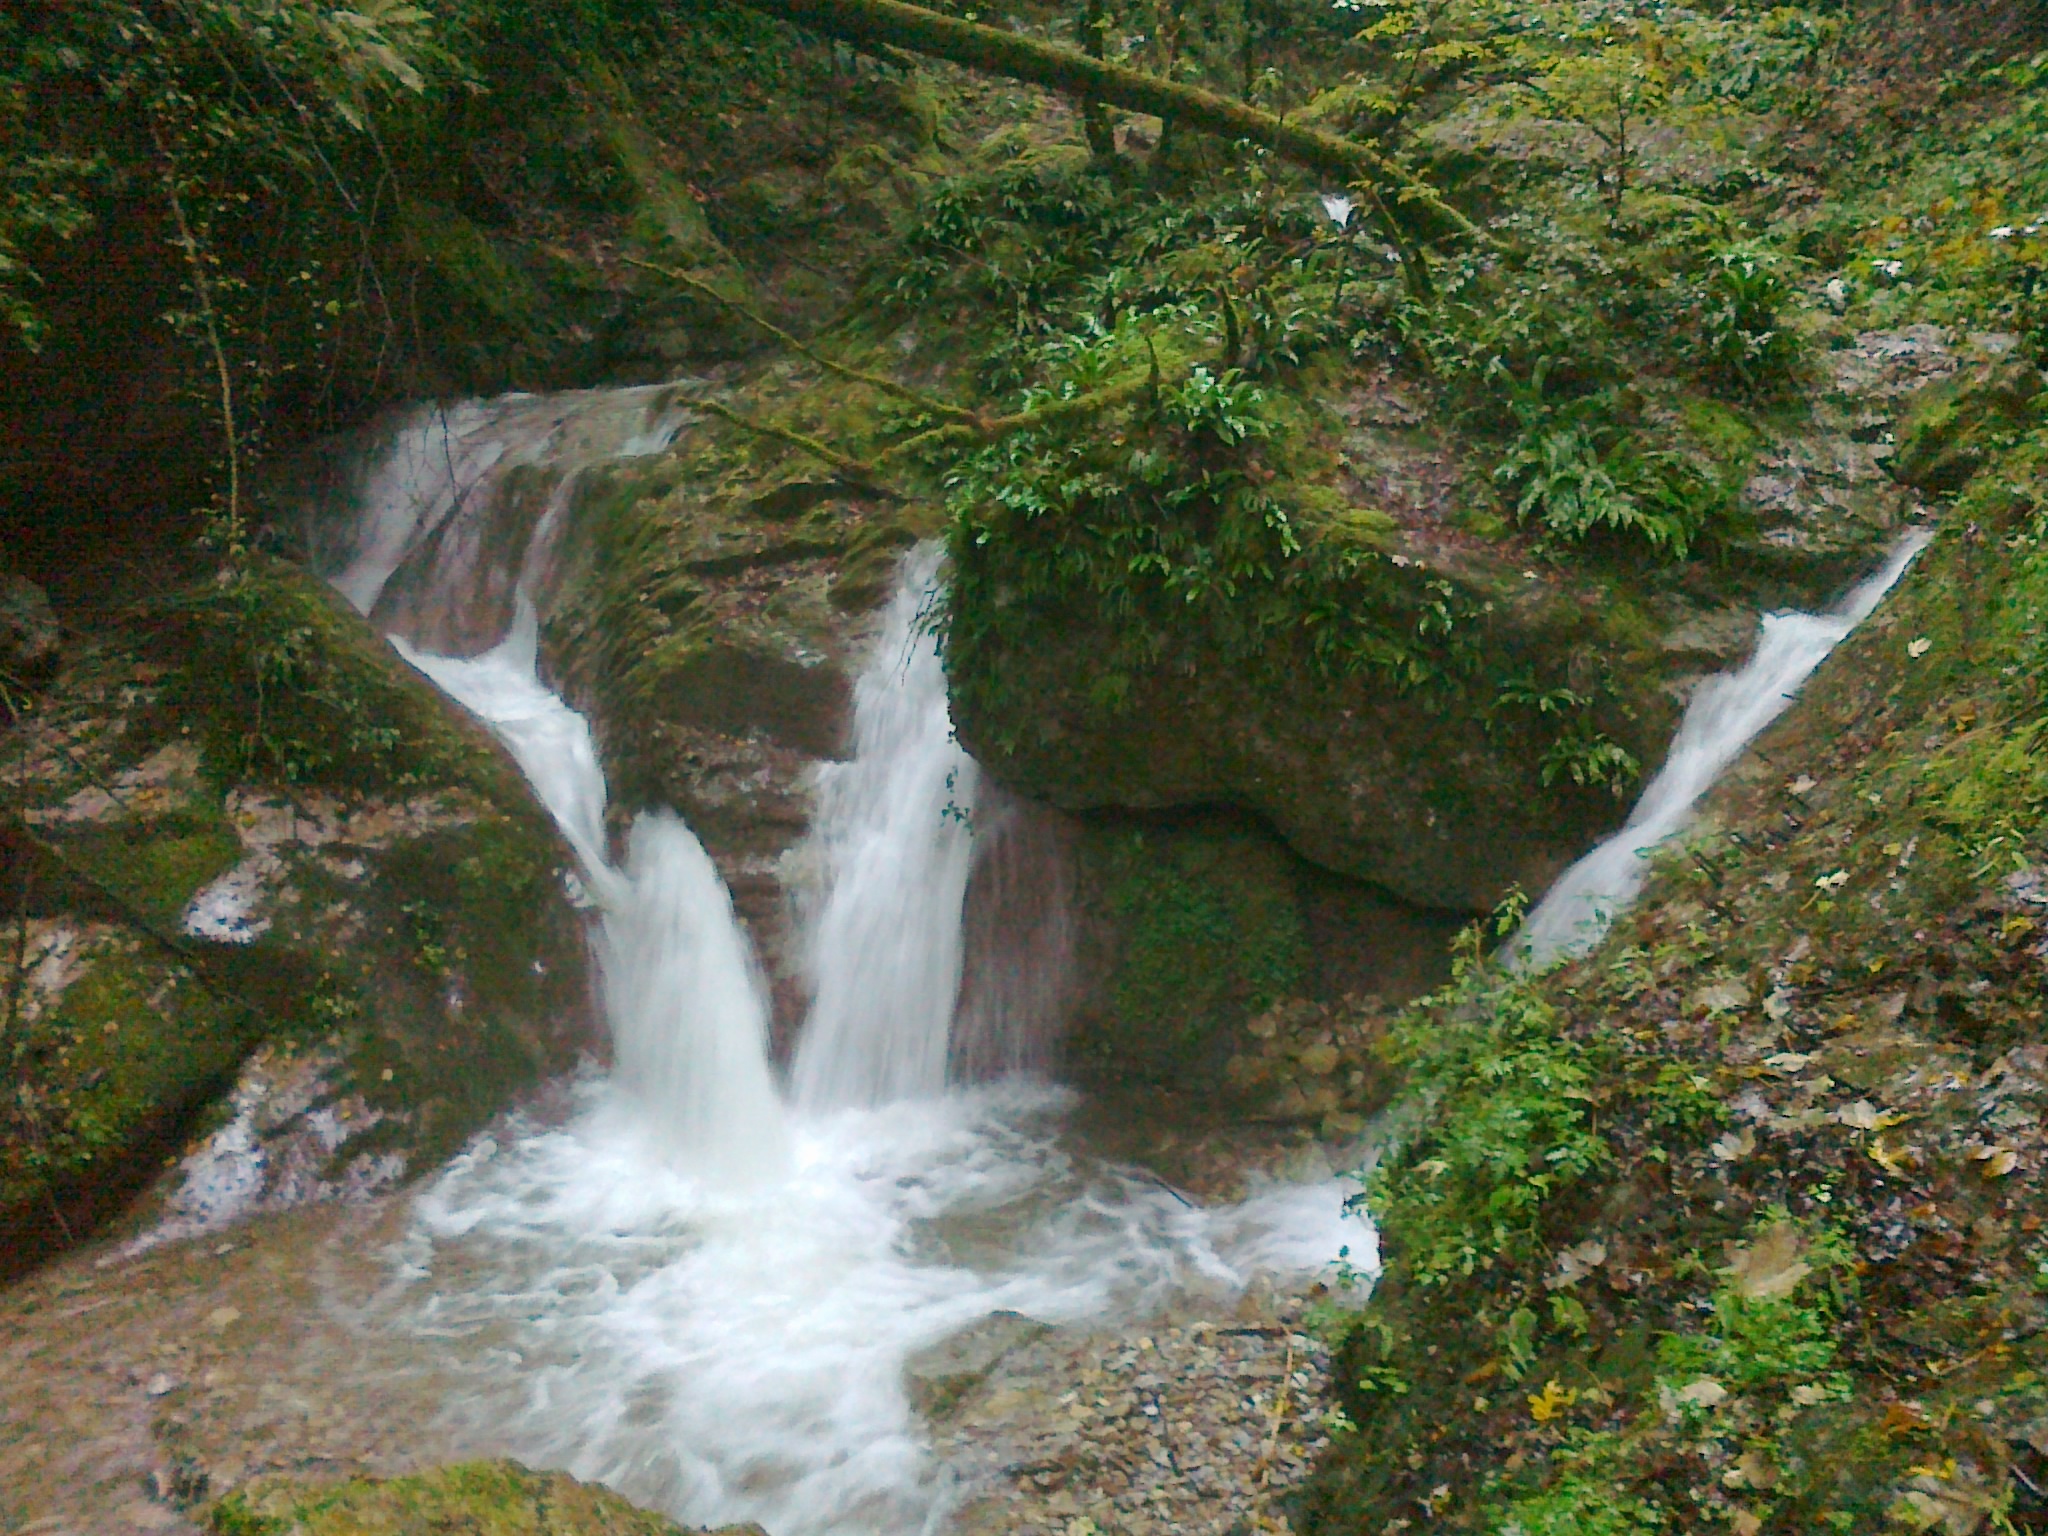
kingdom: Plantae
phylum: Tracheophyta
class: Polypodiopsida
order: Polypodiales
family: Aspleniaceae
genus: Asplenium
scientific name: Asplenium scolopendrium
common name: Hart's-tongue fern
